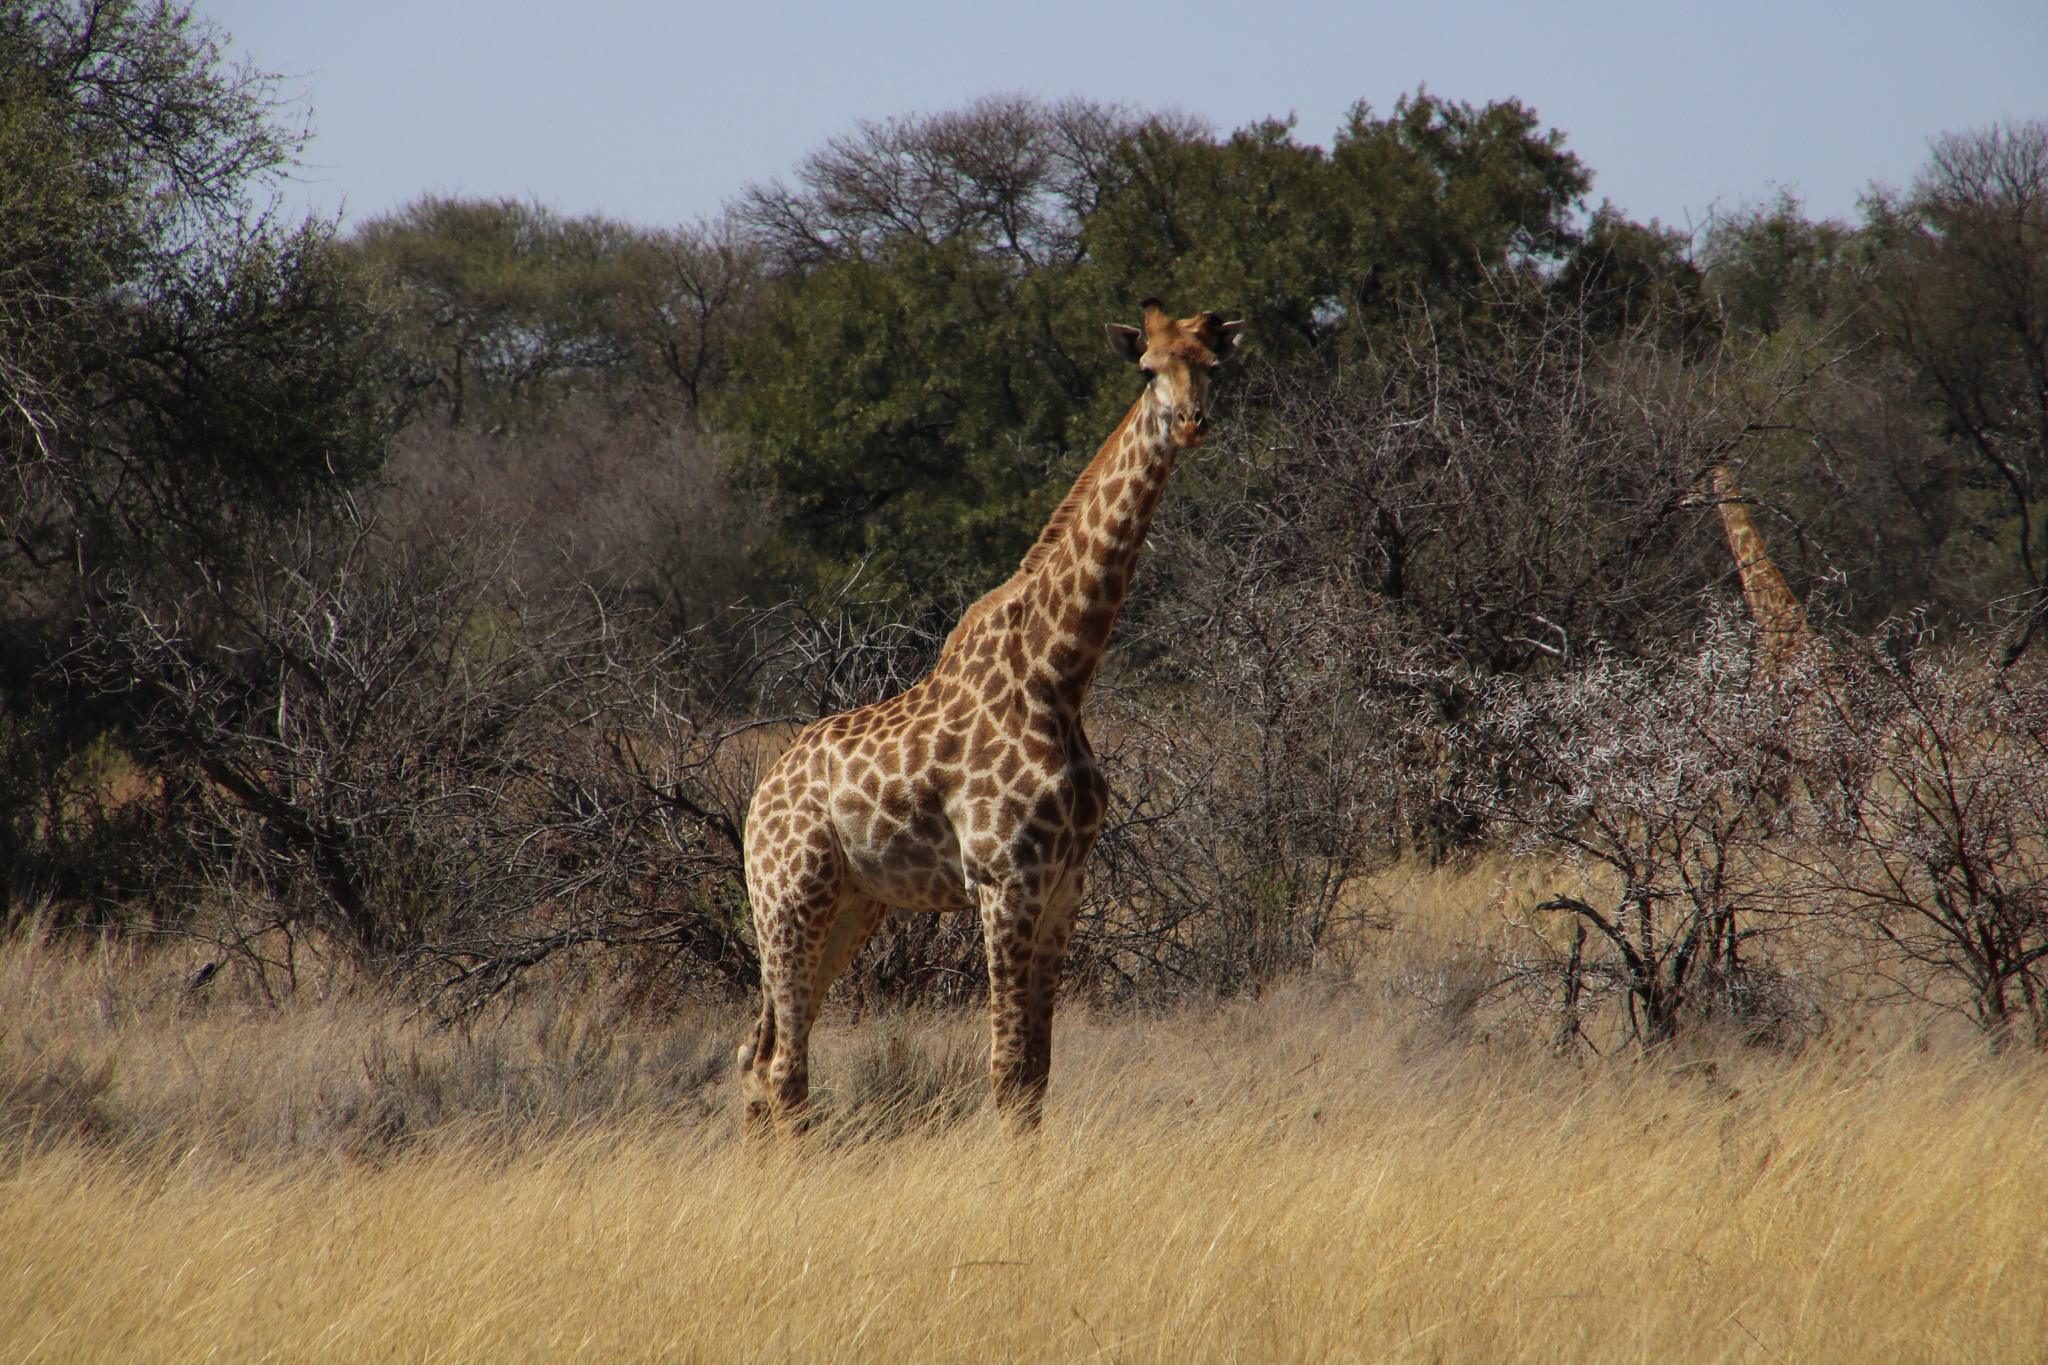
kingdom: Animalia
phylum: Chordata
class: Mammalia
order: Artiodactyla
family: Giraffidae
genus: Giraffa
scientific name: Giraffa giraffa
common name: Southern giraffe
